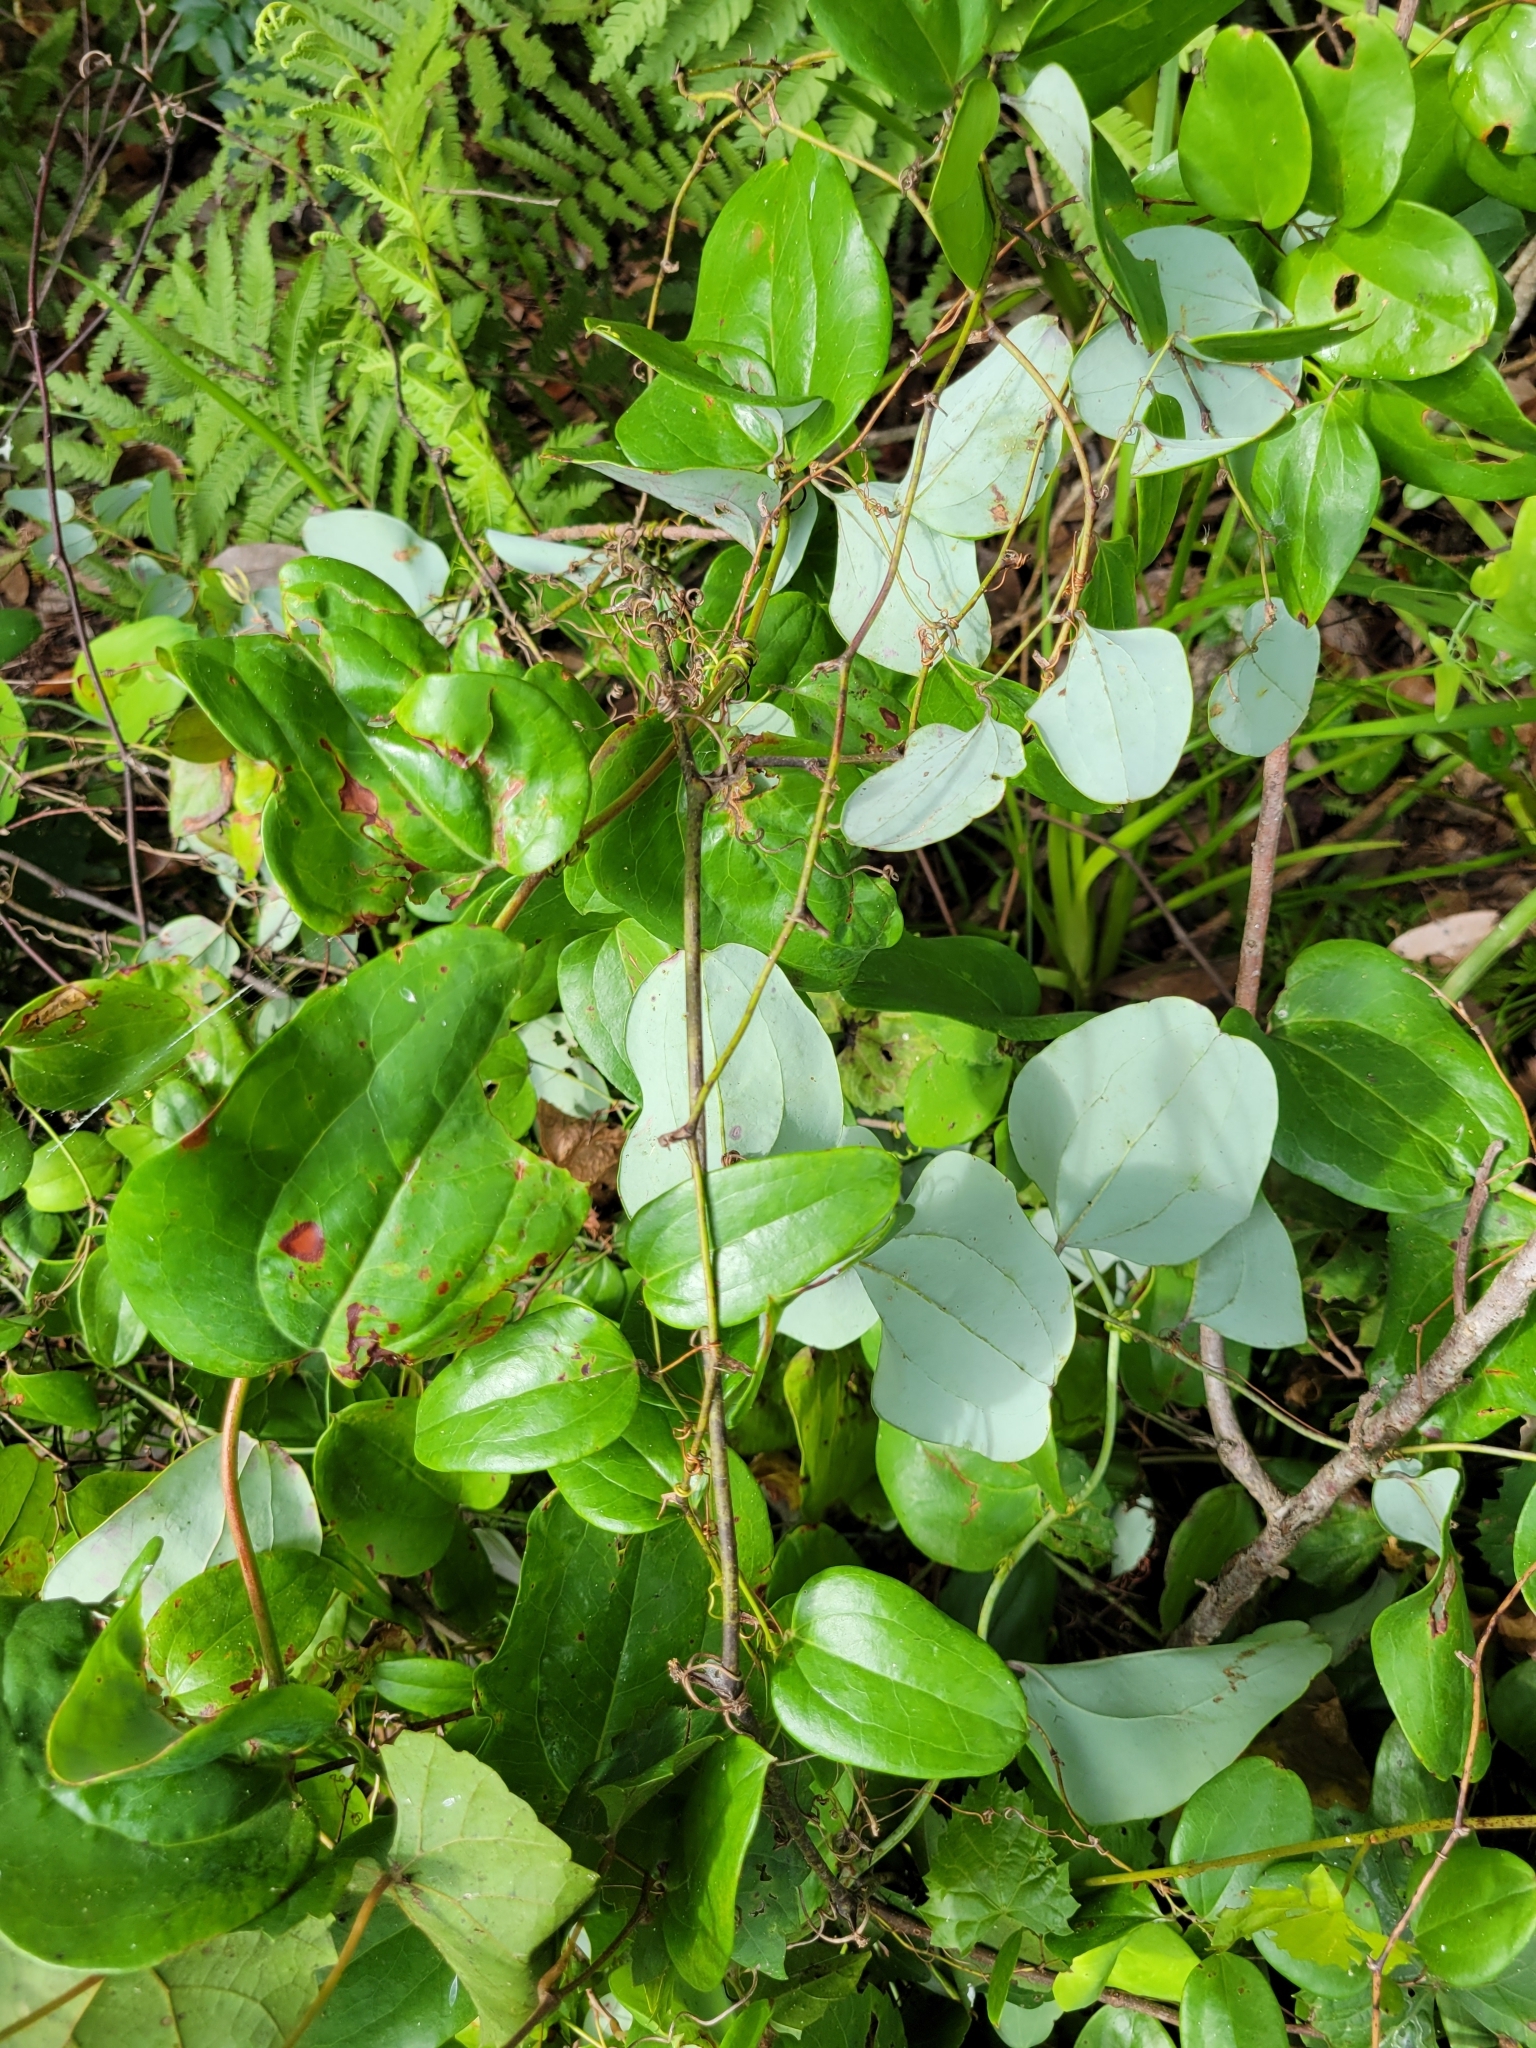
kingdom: Plantae
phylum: Tracheophyta
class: Liliopsida
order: Liliales
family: Smilacaceae
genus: Smilax
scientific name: Smilax glauca
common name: Cat greenbrier
